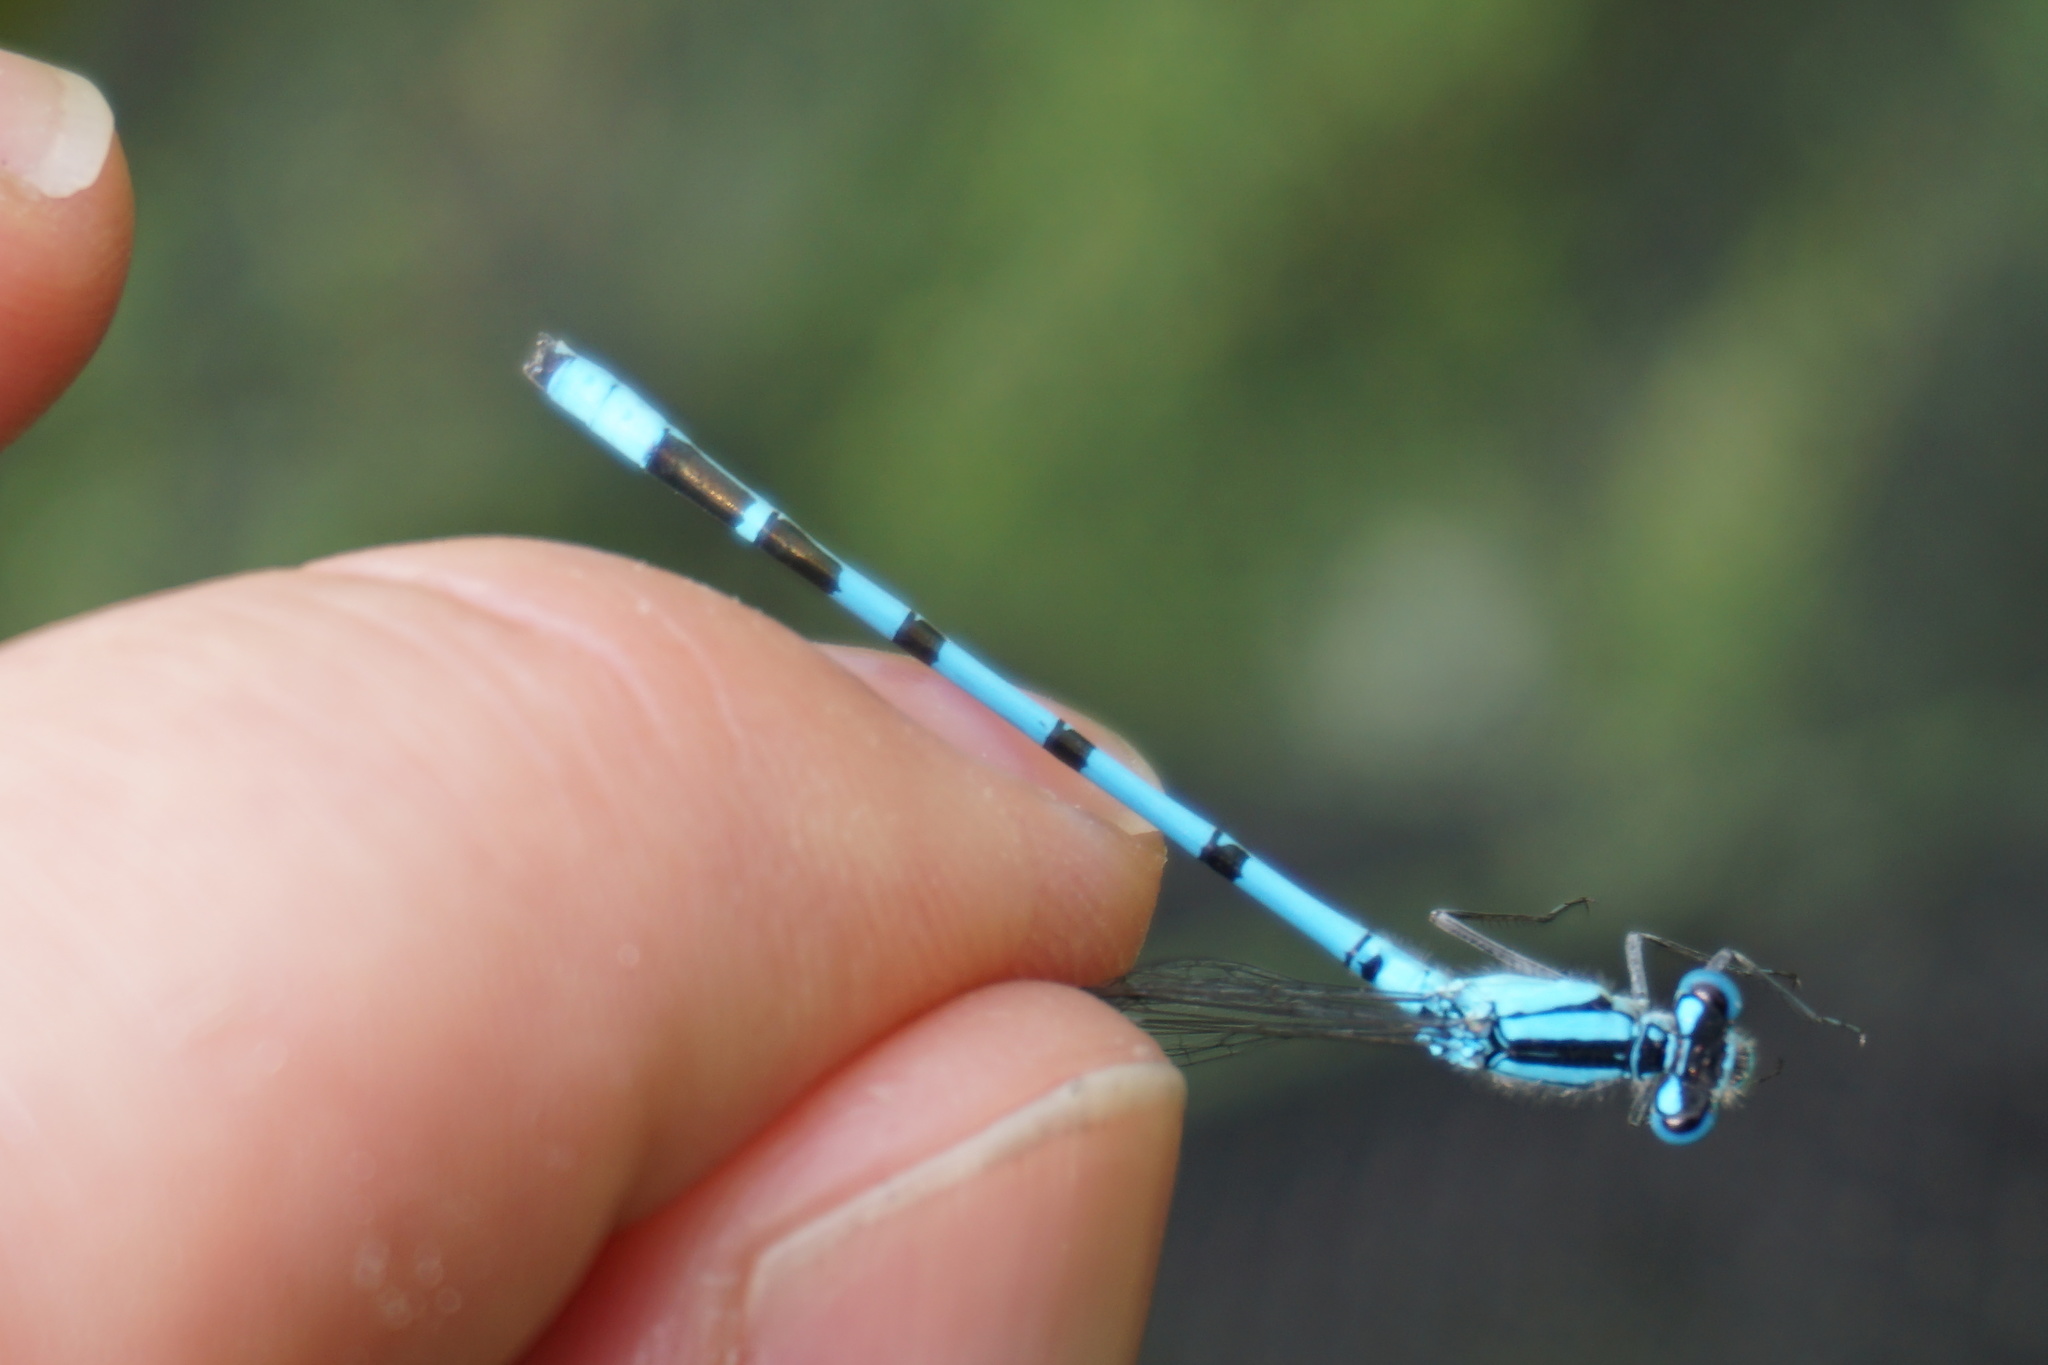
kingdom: Animalia
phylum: Arthropoda
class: Insecta
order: Odonata
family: Coenagrionidae
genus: Enallagma
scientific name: Enallagma cyathigerum
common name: Common blue damselfly
